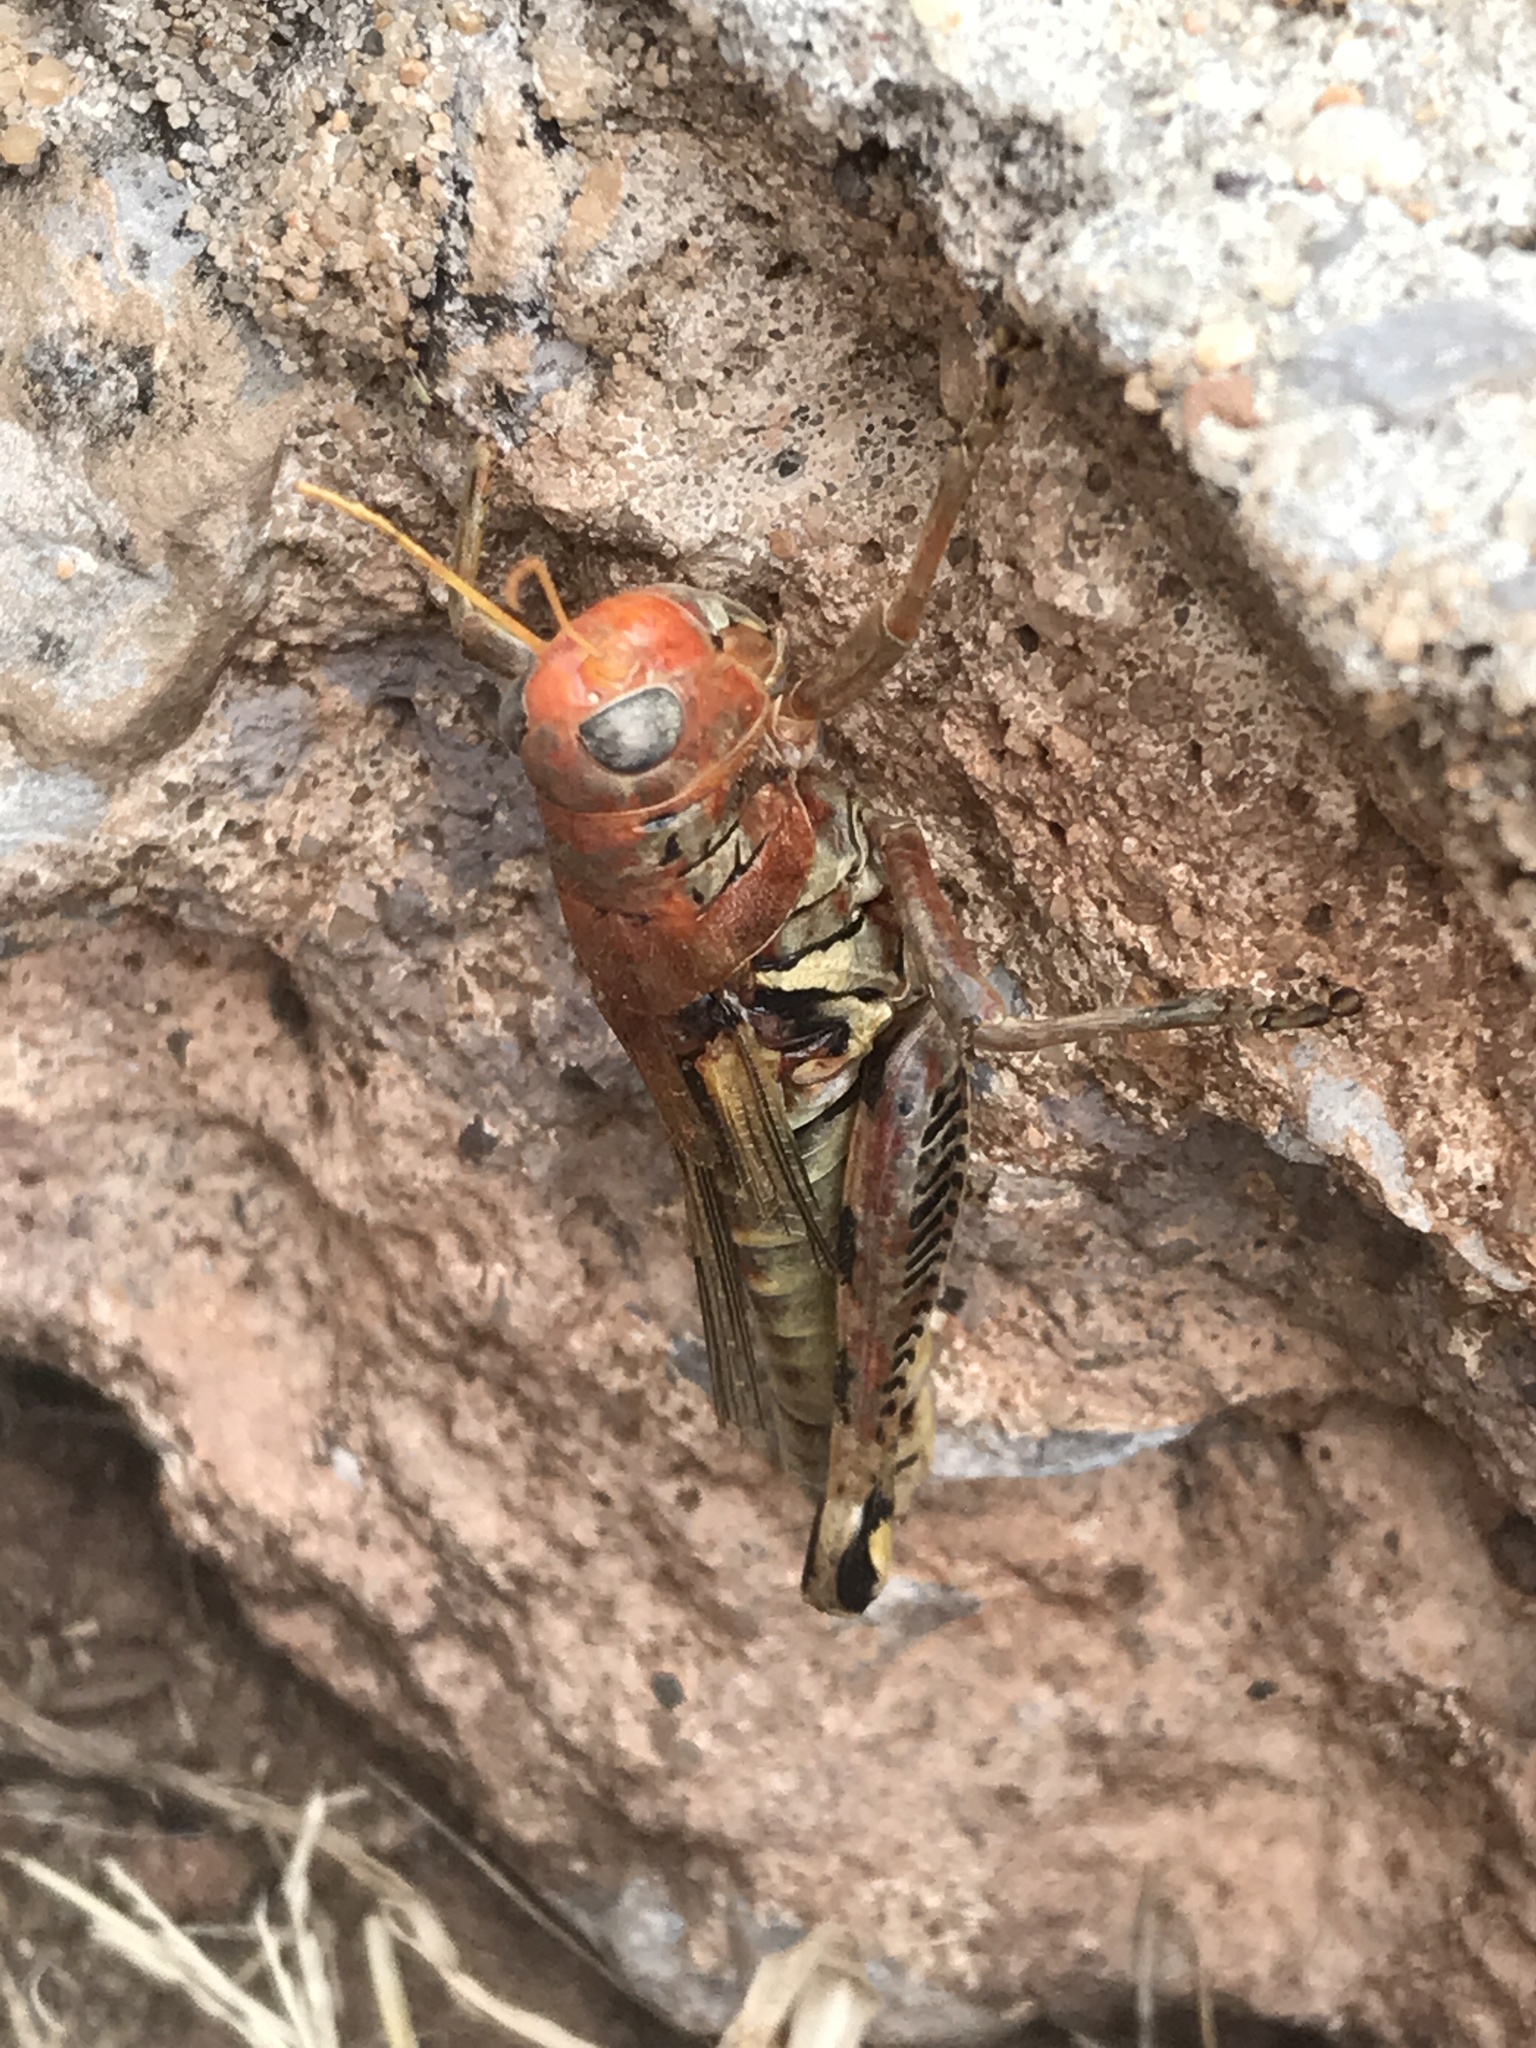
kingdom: Animalia
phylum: Arthropoda
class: Insecta
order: Orthoptera
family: Acrididae
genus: Melanoplus
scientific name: Melanoplus differentialis
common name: Differential grasshopper
